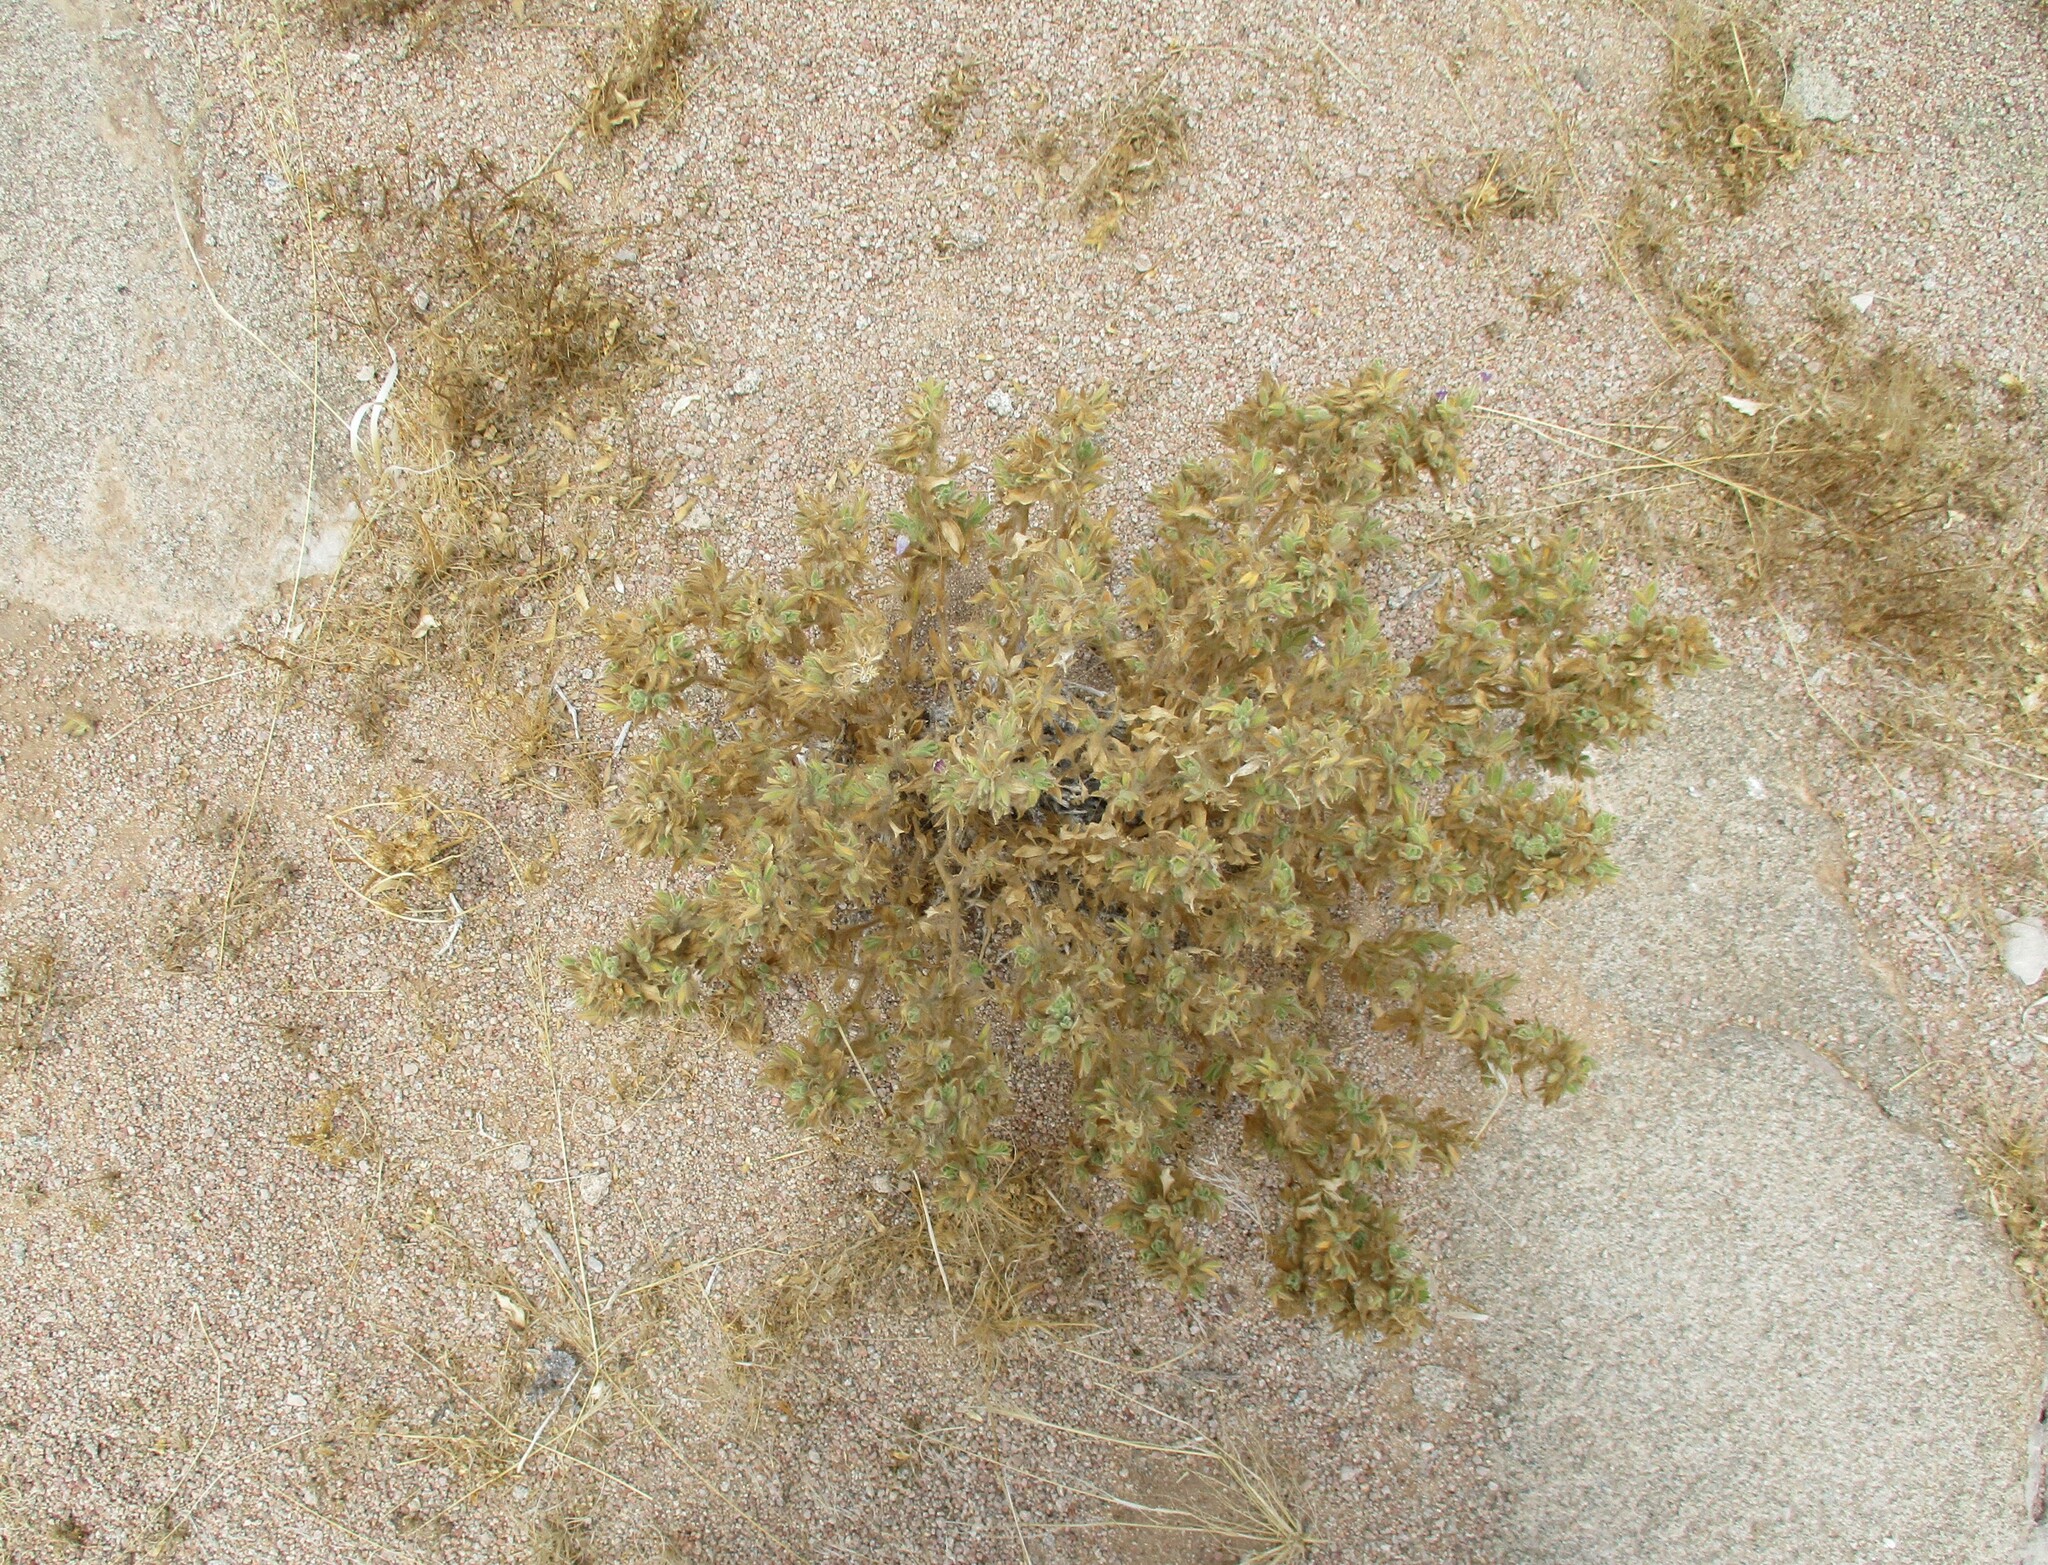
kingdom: Plantae
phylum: Tracheophyta
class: Magnoliopsida
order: Lamiales
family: Acanthaceae
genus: Pogonospermum
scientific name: Pogonospermum
